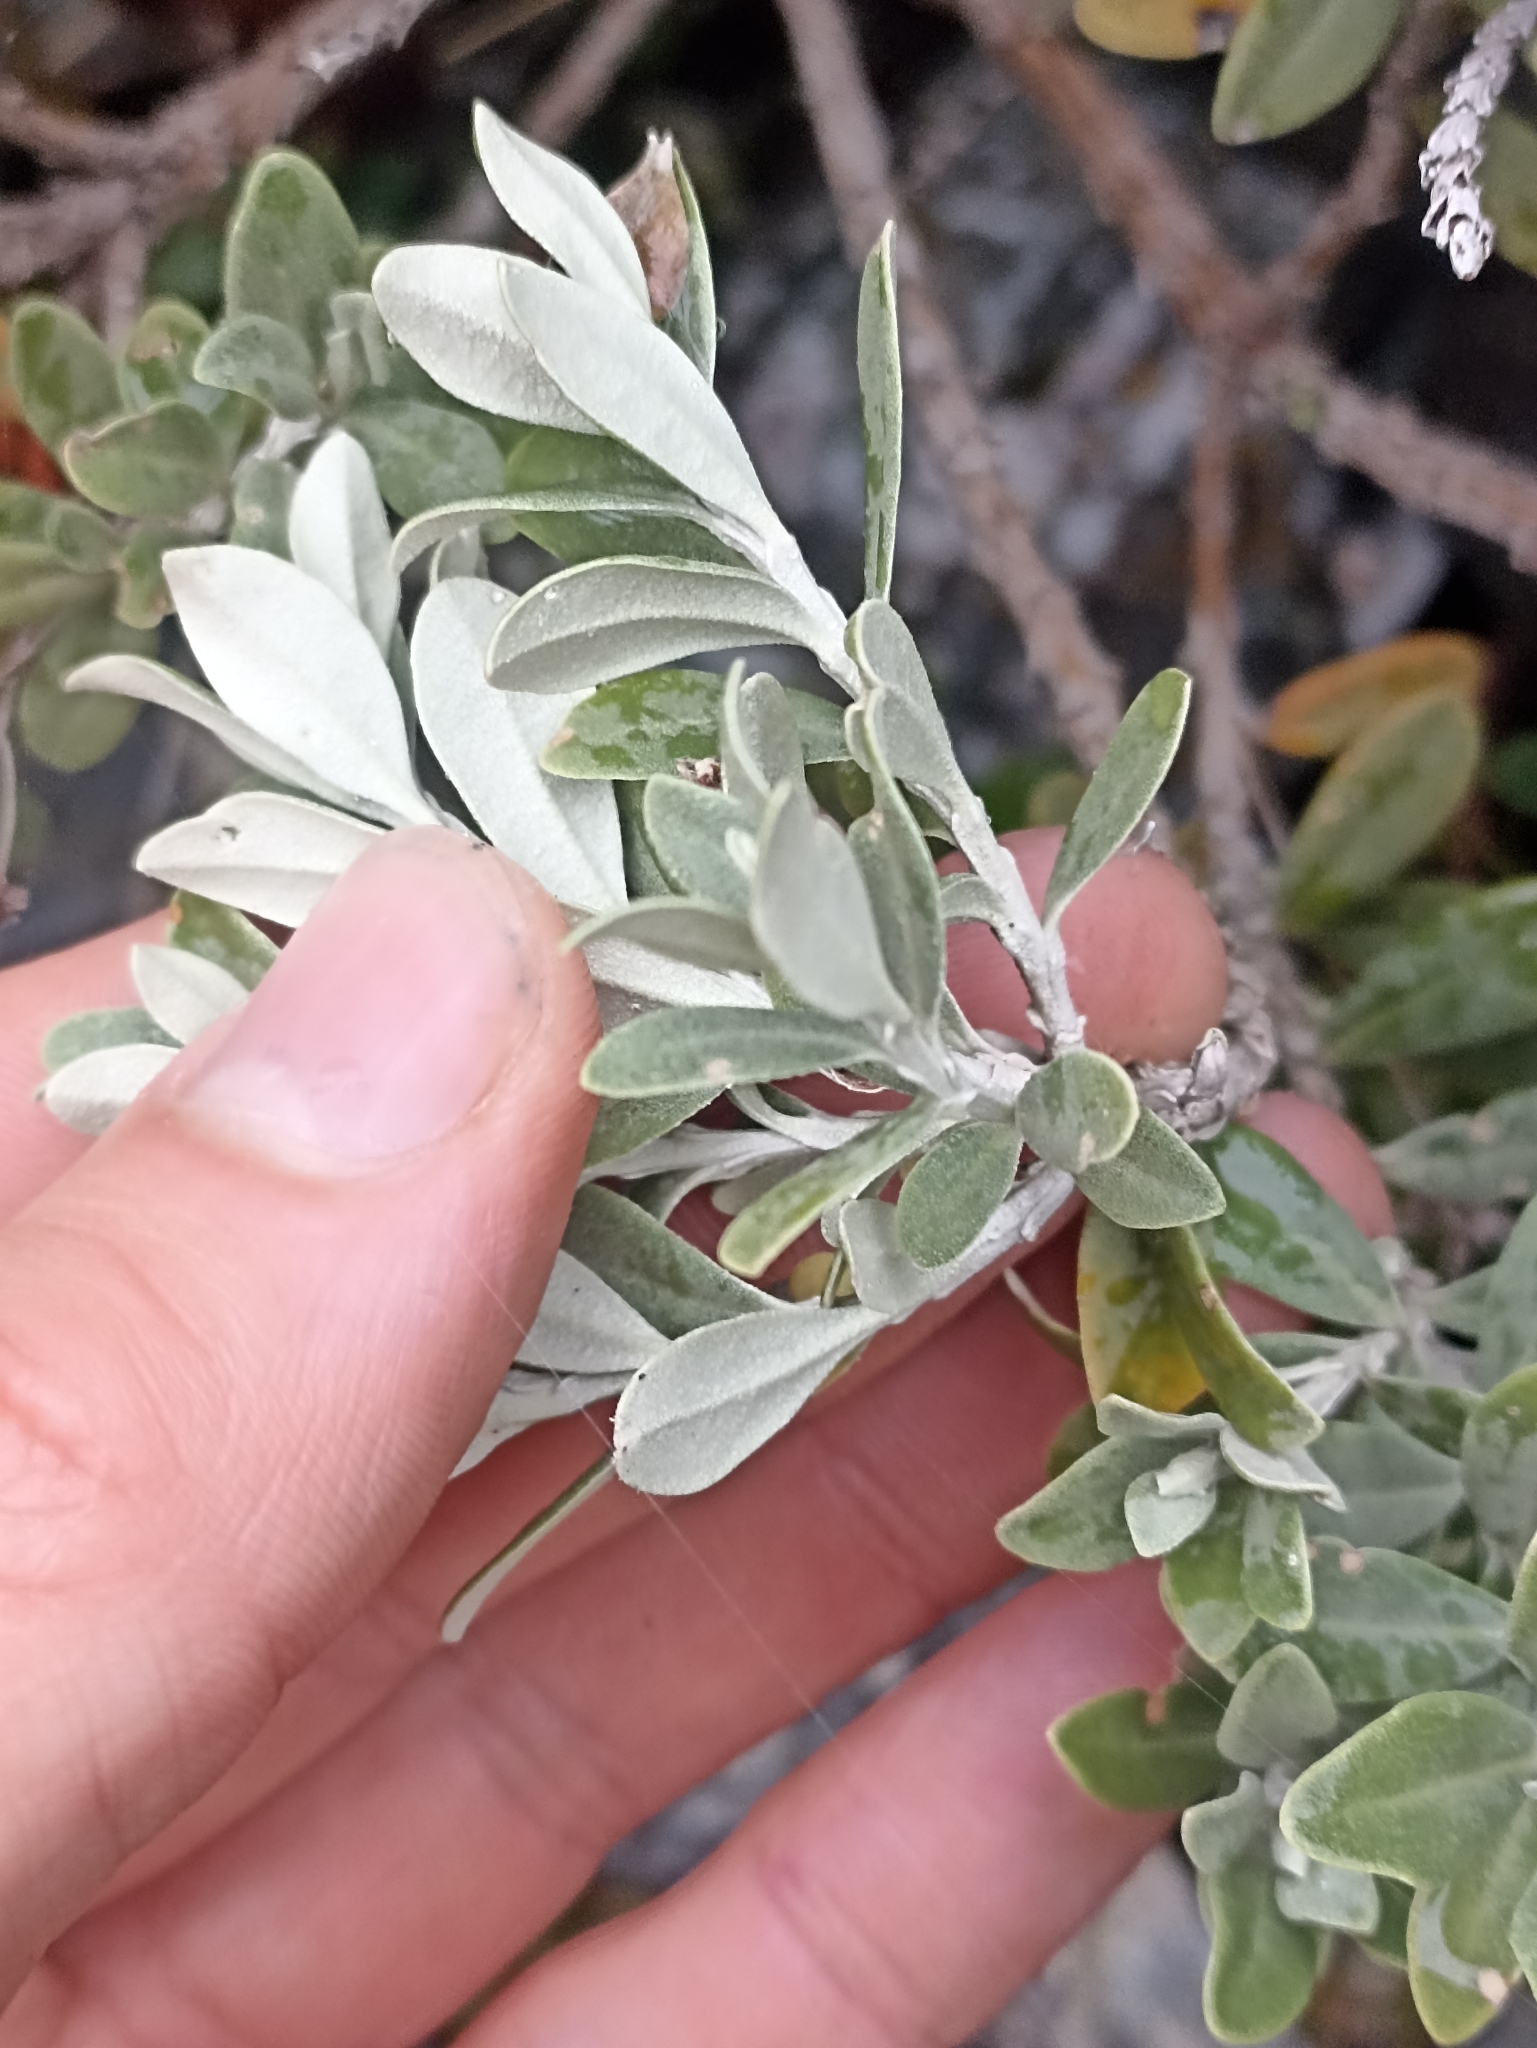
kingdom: Plantae
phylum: Tracheophyta
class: Magnoliopsida
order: Asterales
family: Asteraceae
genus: Olearia
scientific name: Olearia moschata
